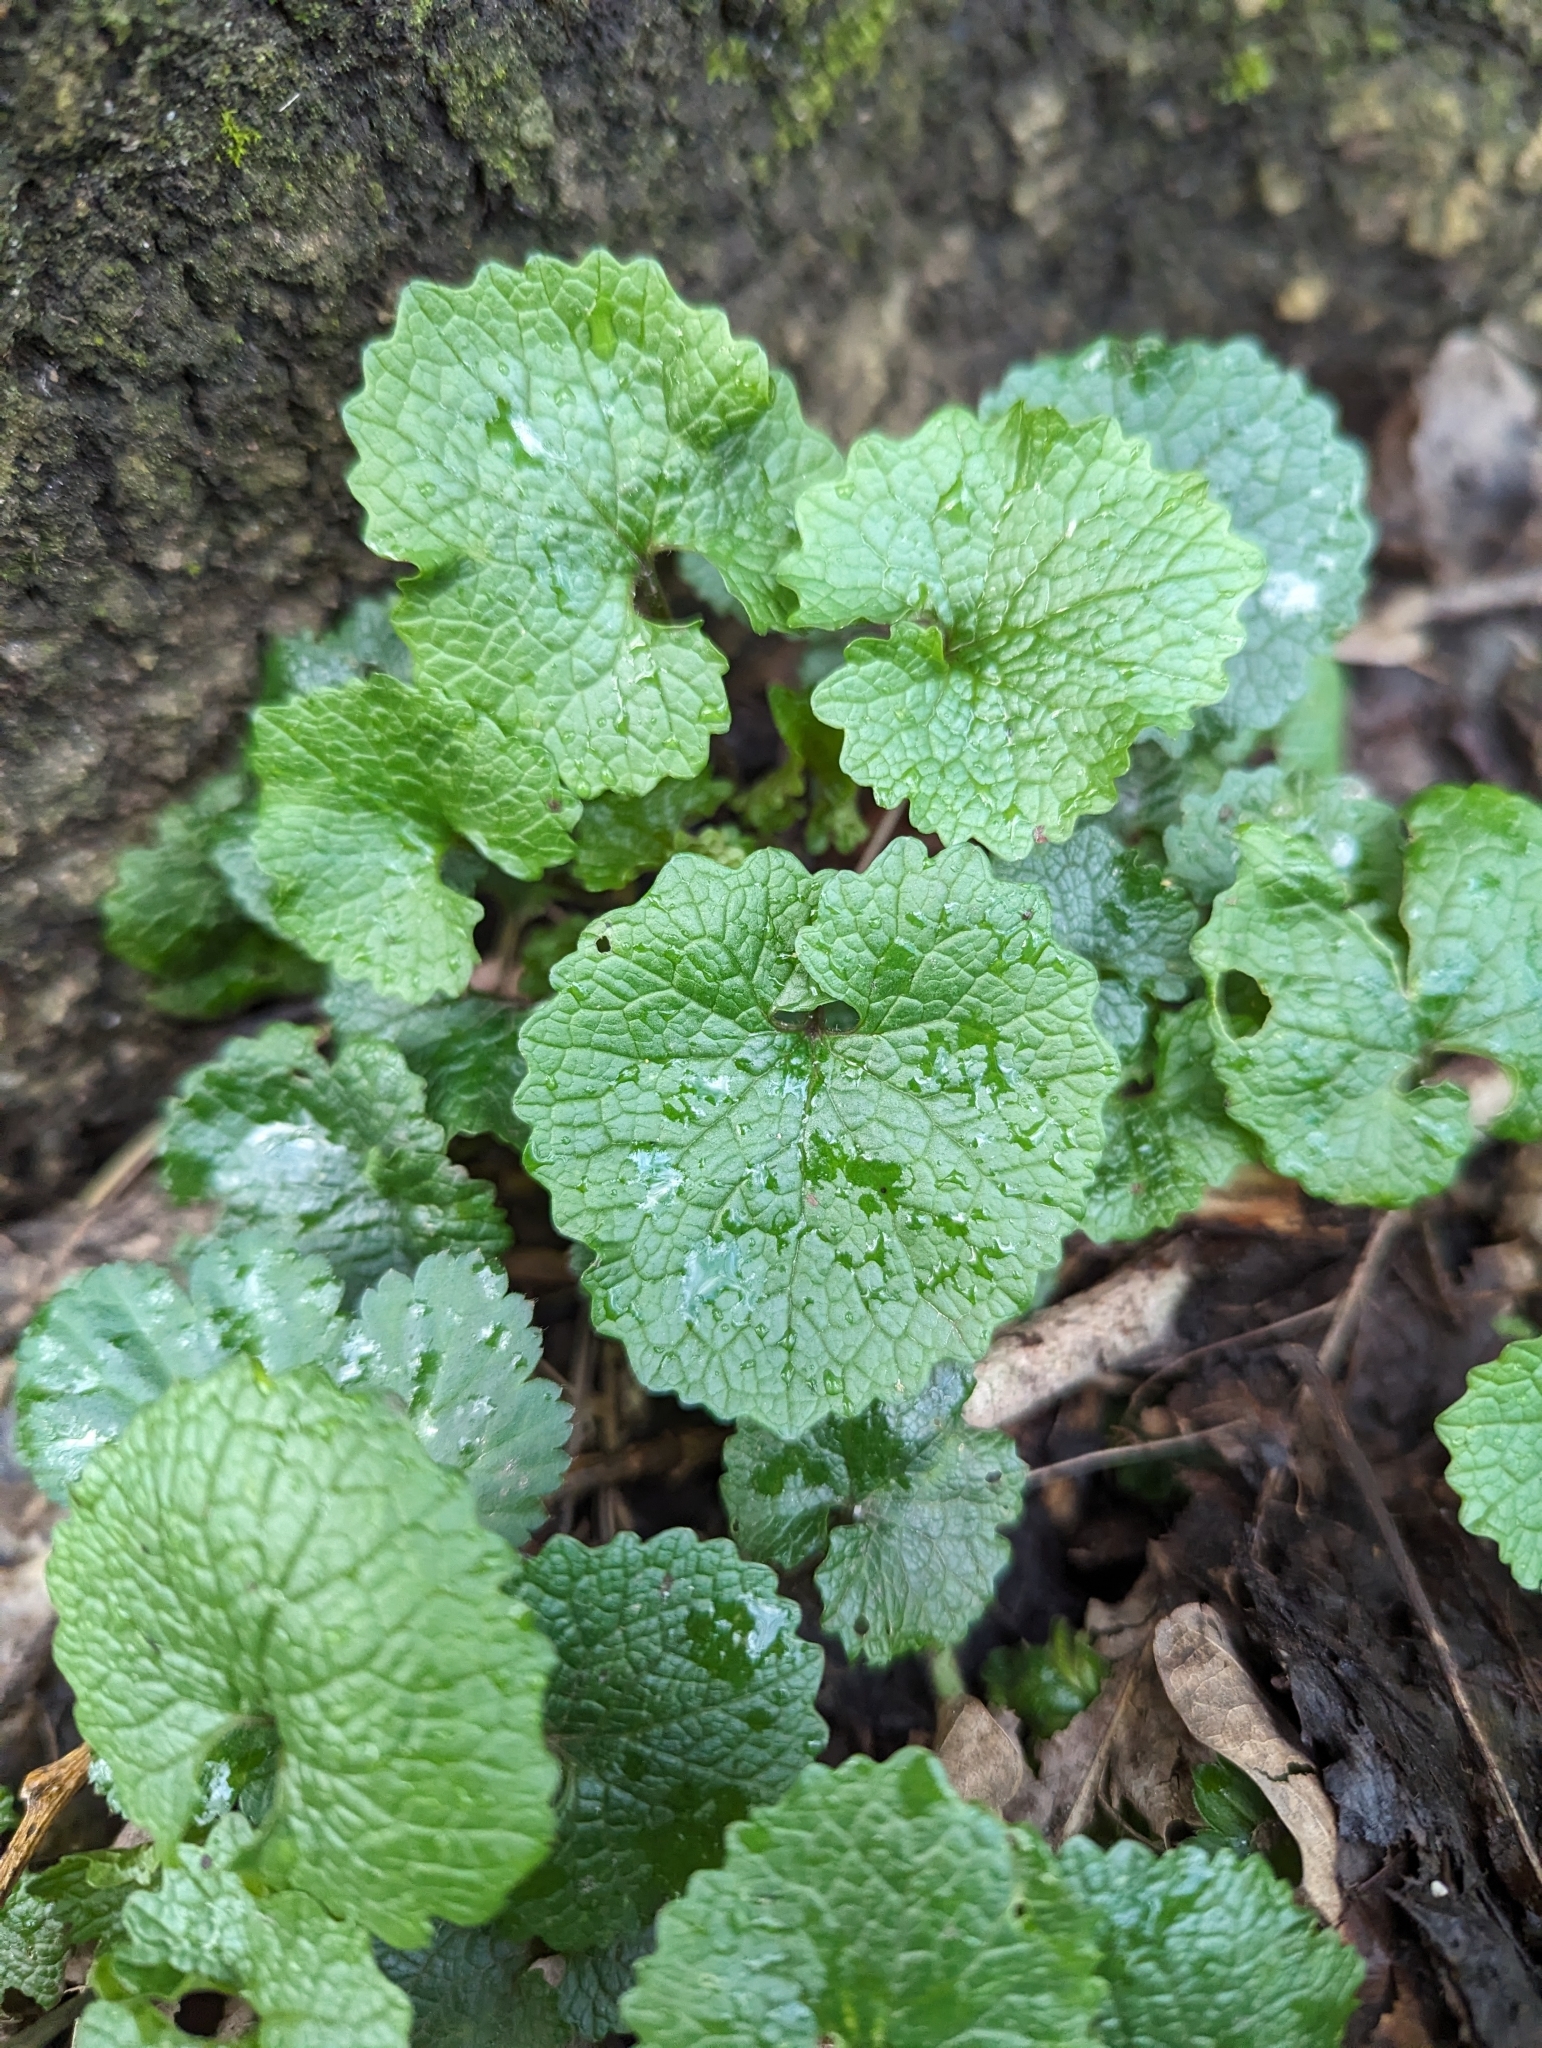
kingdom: Plantae
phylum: Tracheophyta
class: Magnoliopsida
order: Brassicales
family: Brassicaceae
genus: Alliaria
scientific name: Alliaria petiolata
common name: Garlic mustard
